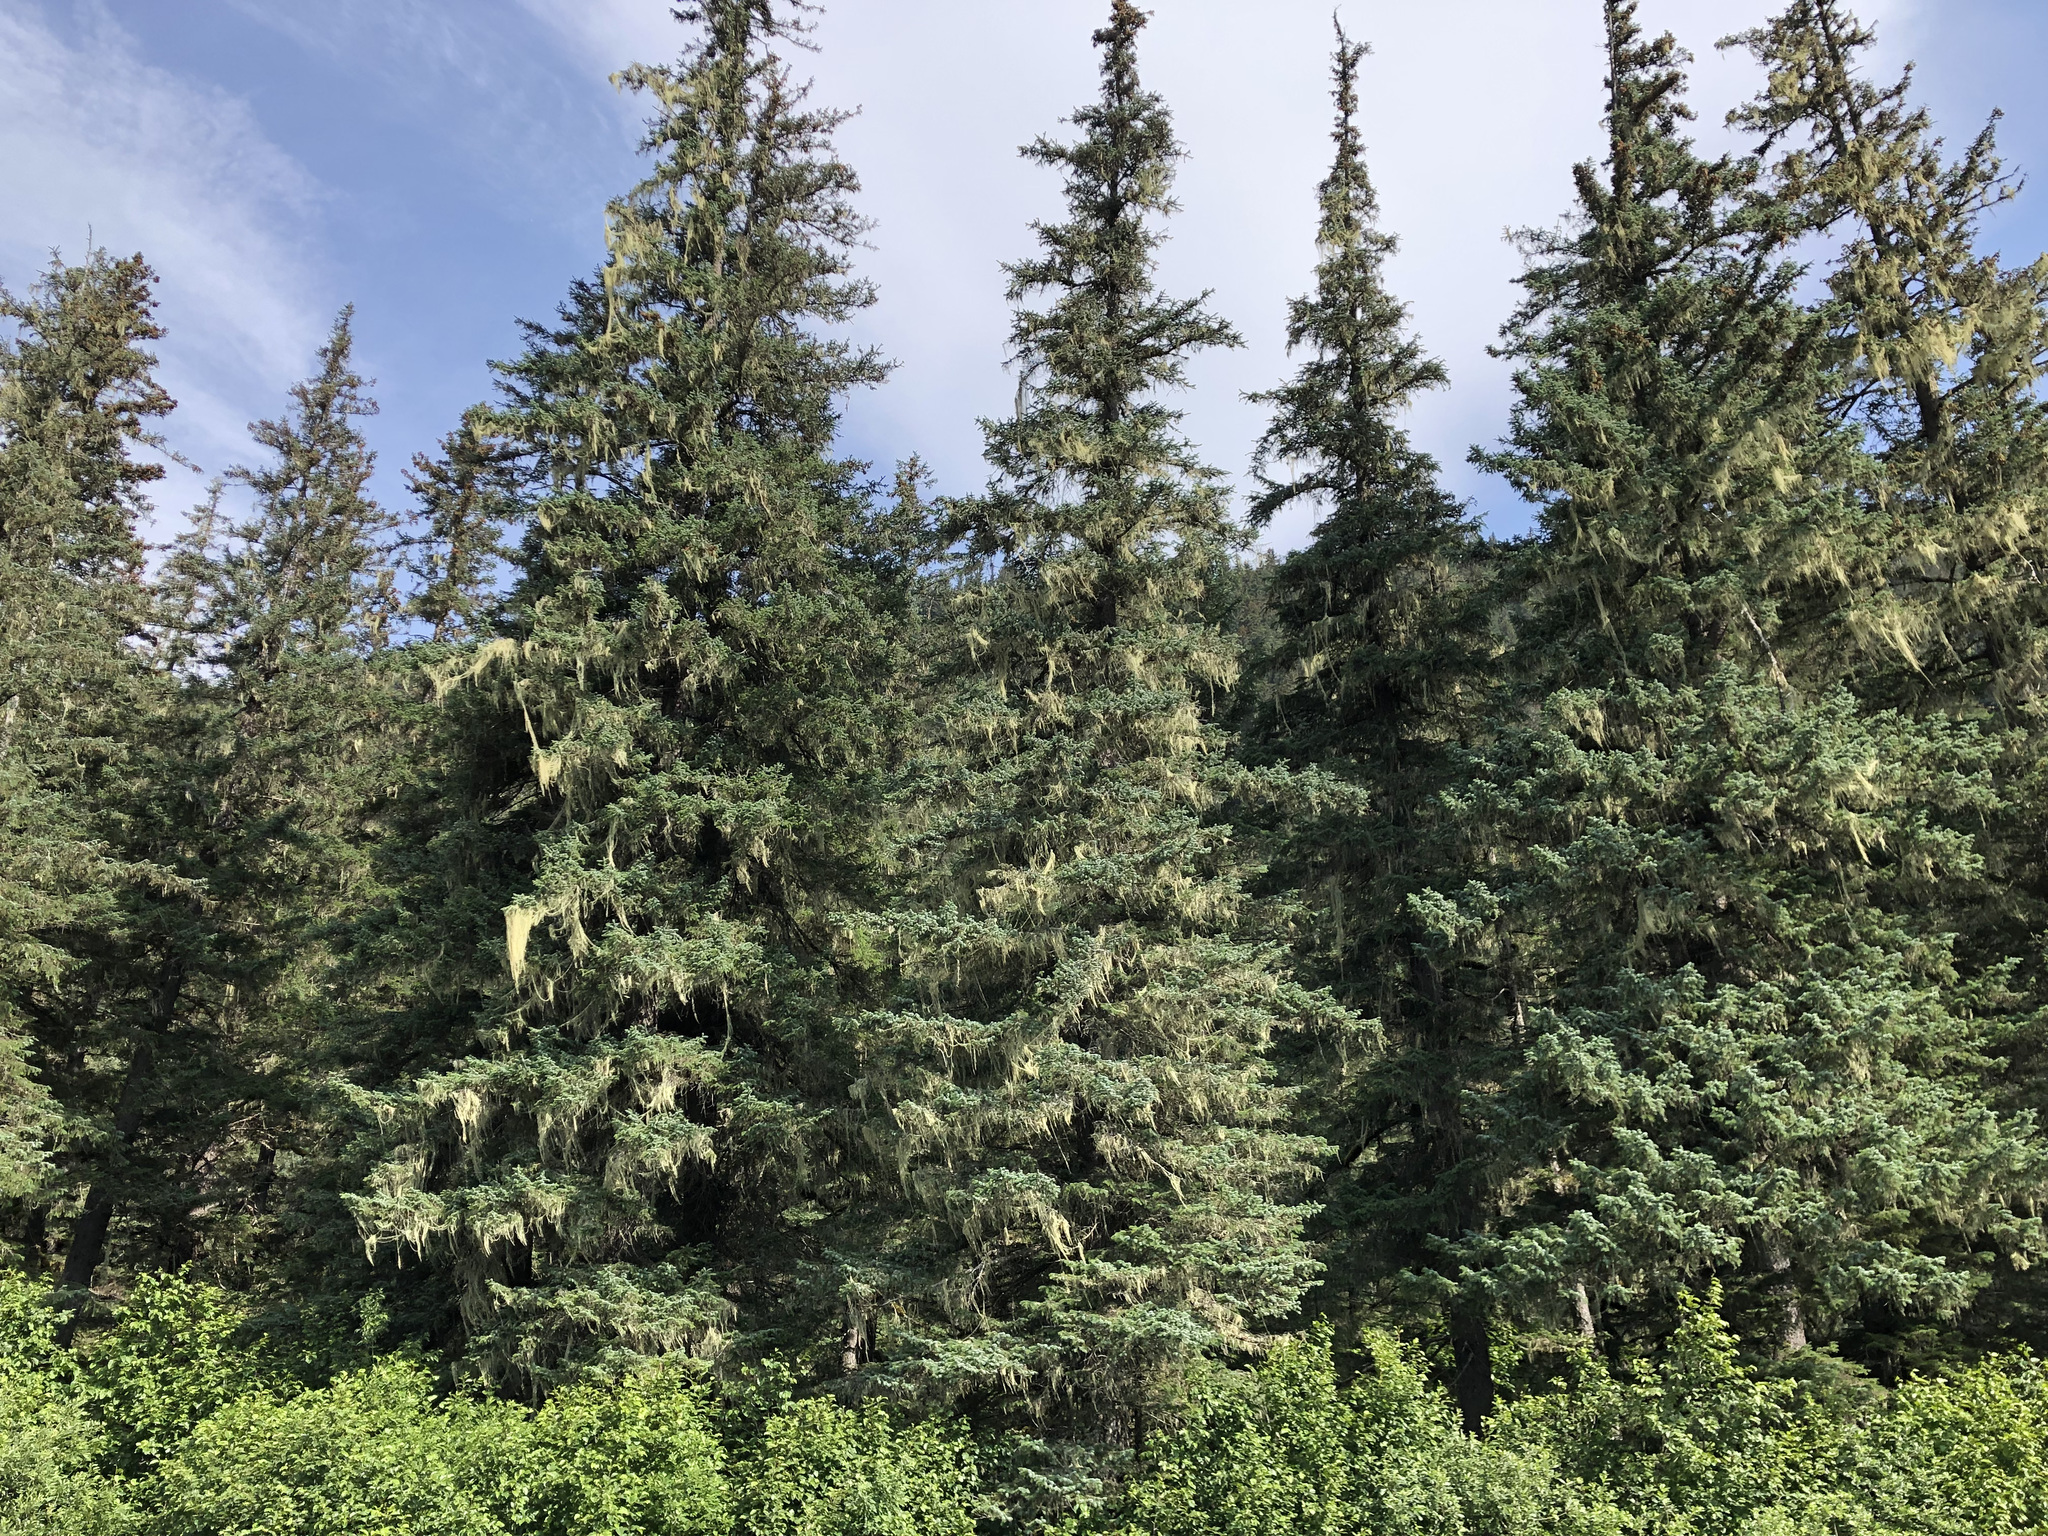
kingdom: Plantae
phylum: Tracheophyta
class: Pinopsida
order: Pinales
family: Pinaceae
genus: Picea
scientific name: Picea sitchensis
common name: Sitka spruce
